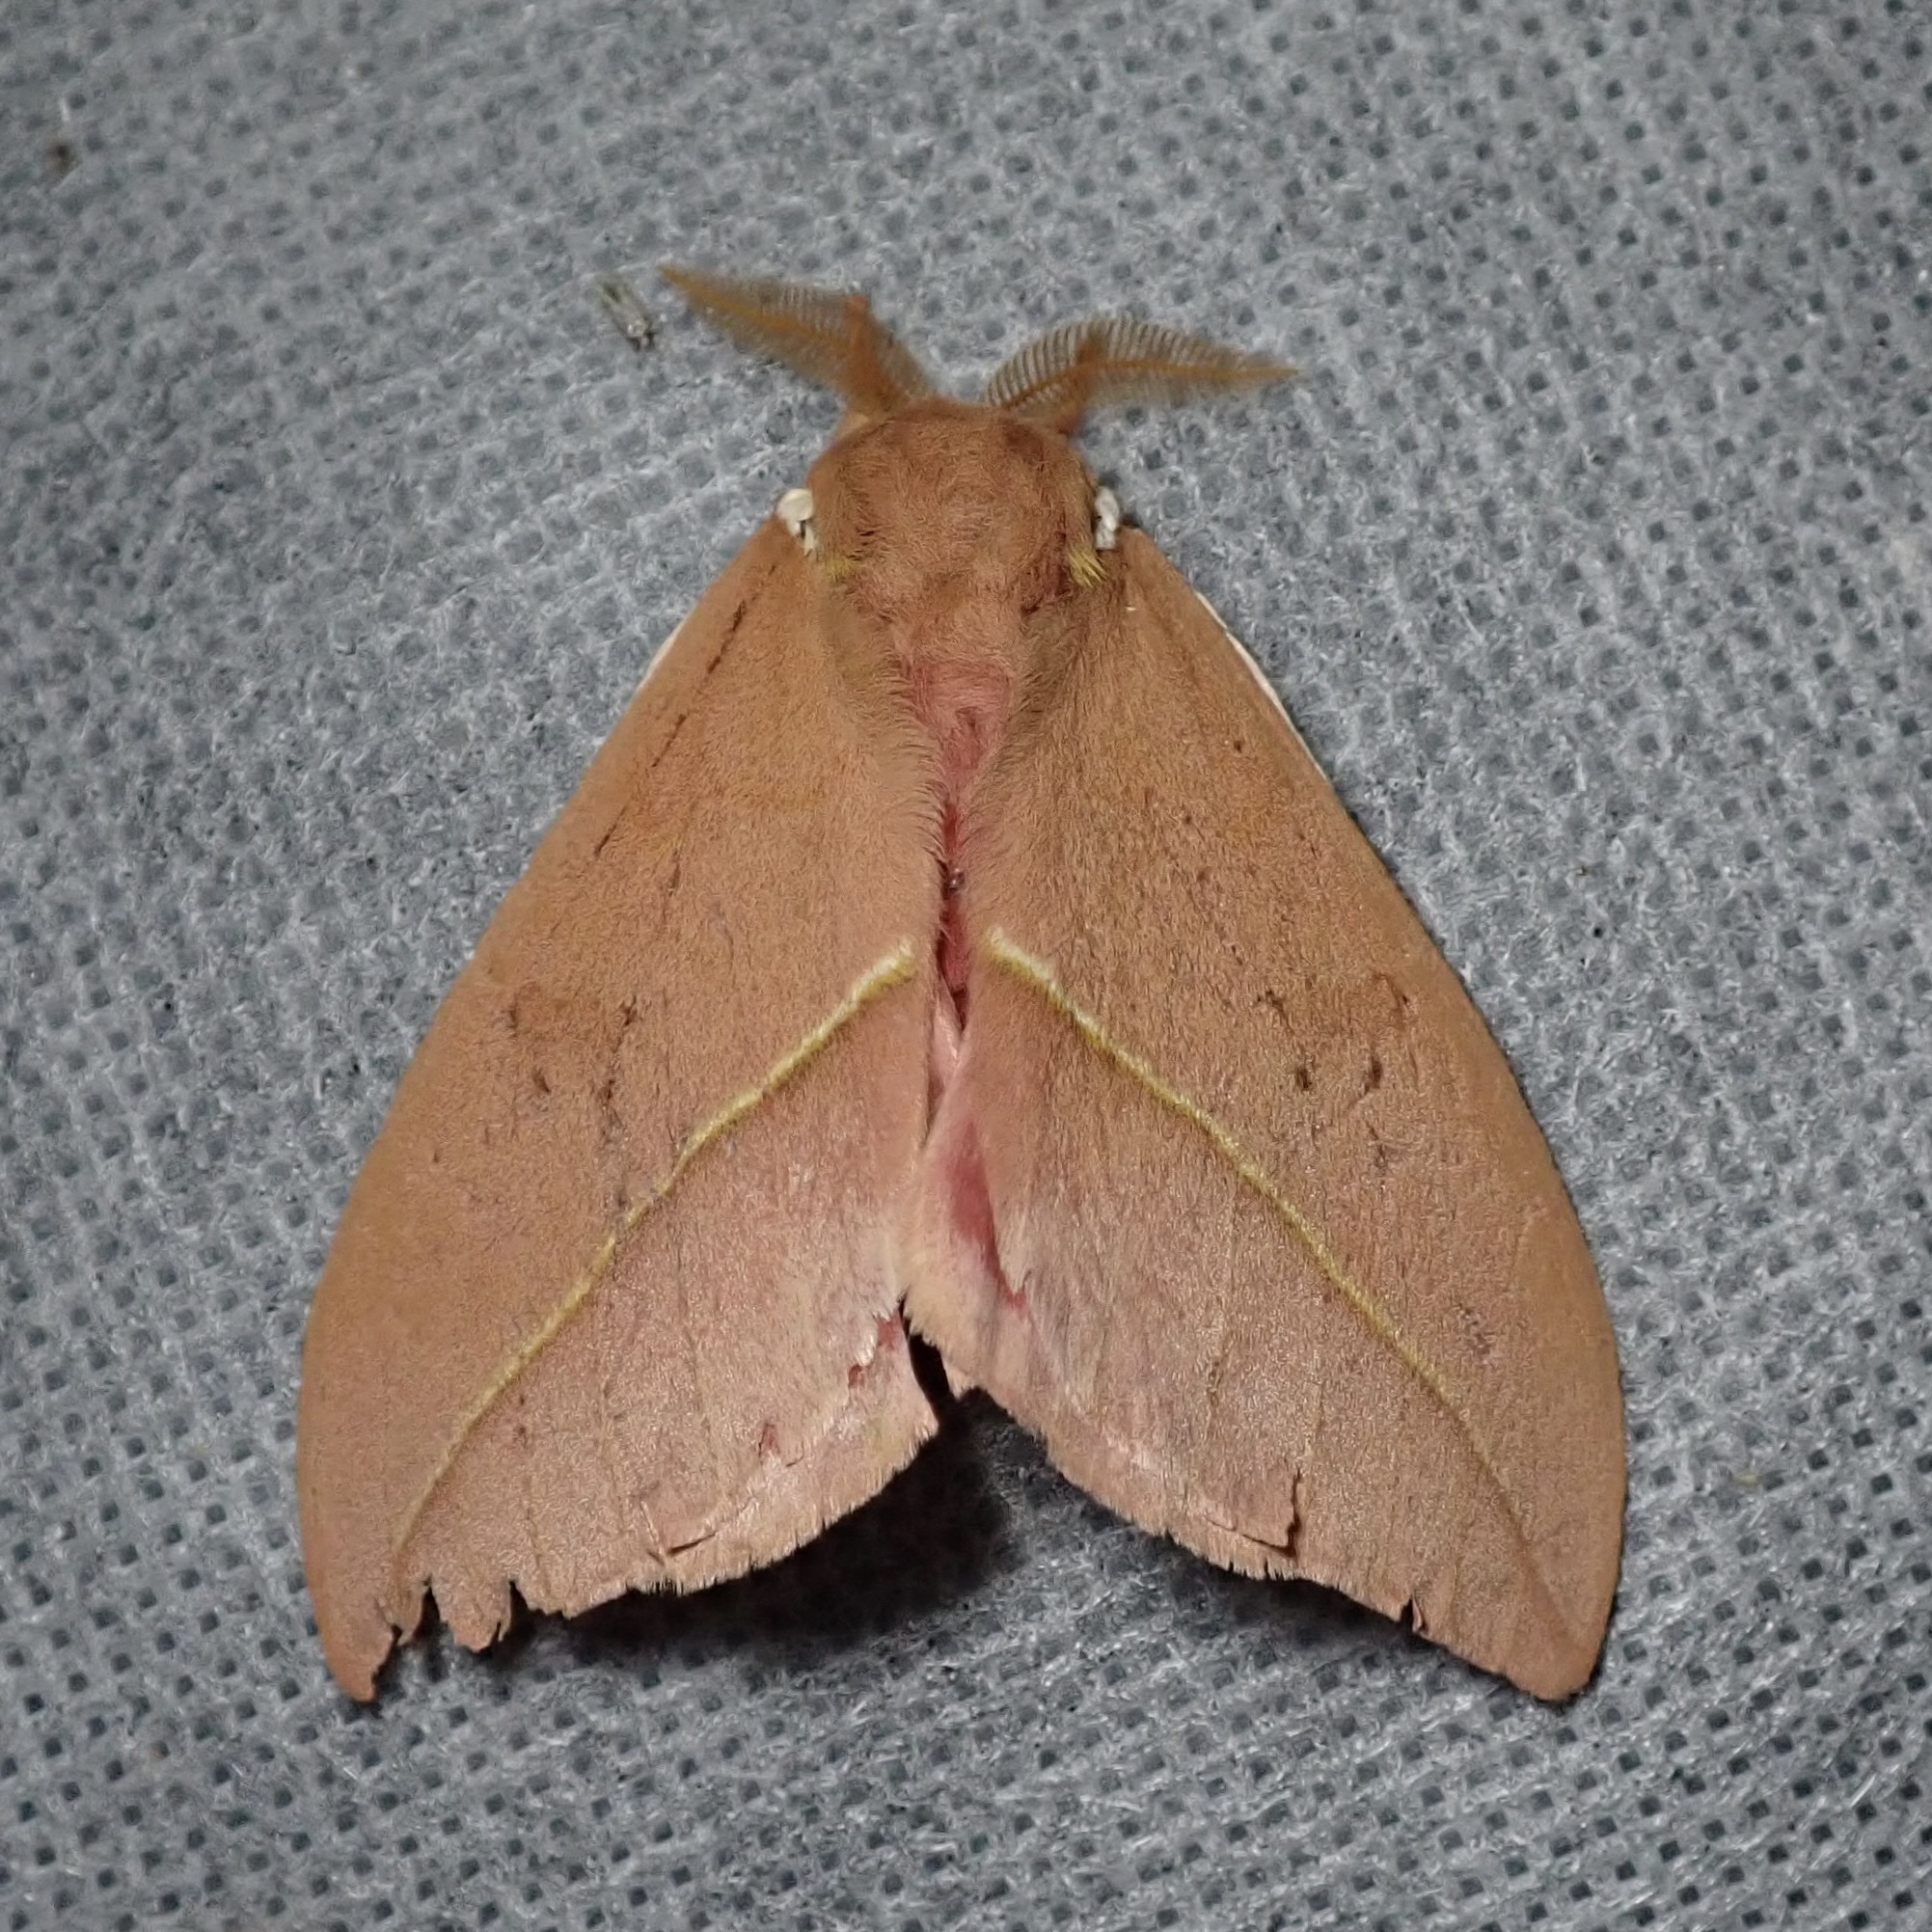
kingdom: Animalia
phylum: Arthropoda
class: Insecta
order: Lepidoptera
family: Saturniidae
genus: Automeris
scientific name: Automeris cecrops
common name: Cecrops eyed silkmoth
